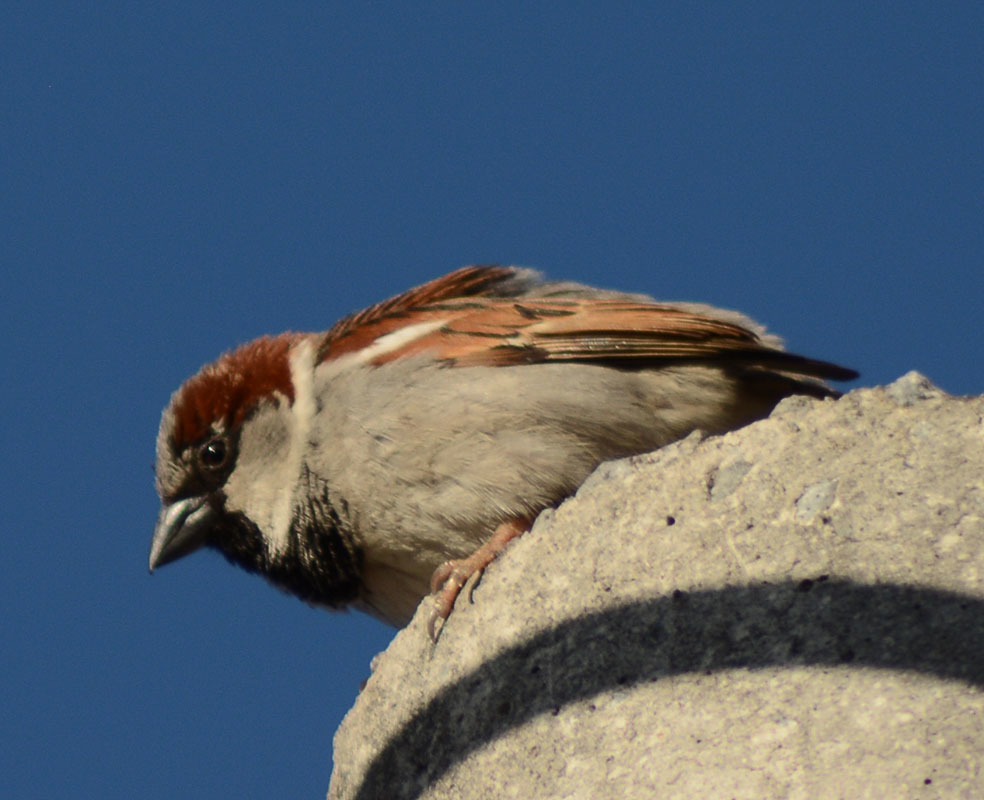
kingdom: Animalia
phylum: Chordata
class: Aves
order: Passeriformes
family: Passeridae
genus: Passer
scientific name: Passer domesticus
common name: House sparrow
